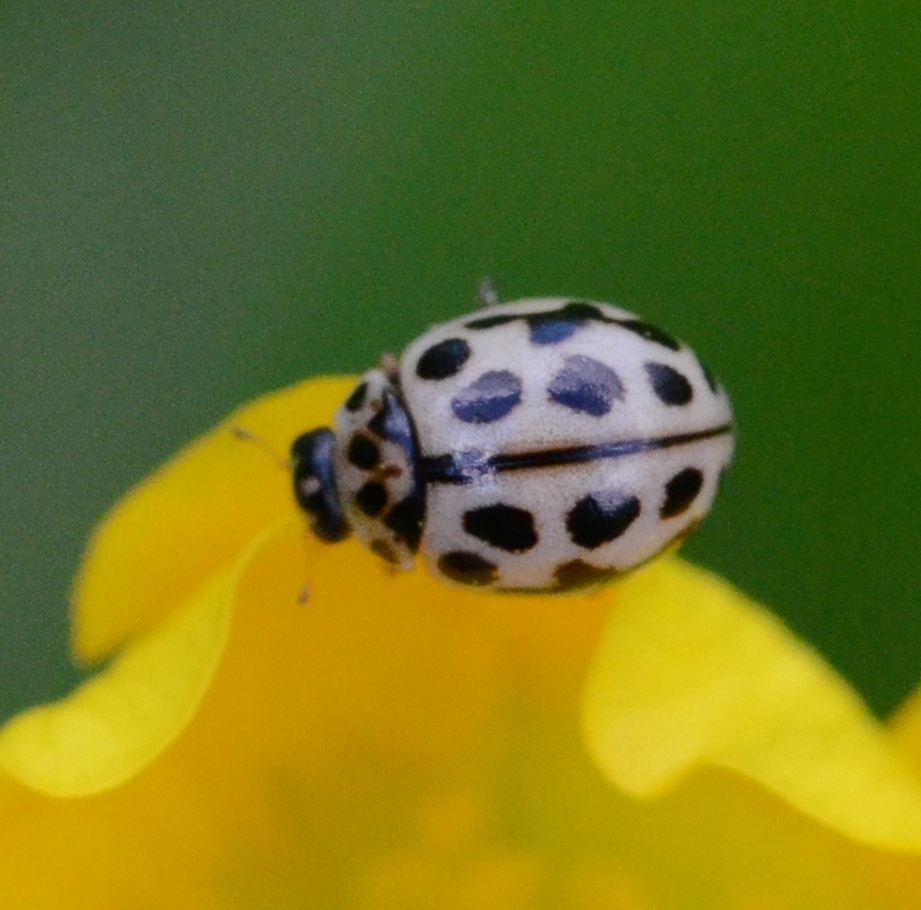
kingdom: Animalia
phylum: Arthropoda
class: Insecta
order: Coleoptera
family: Coccinellidae
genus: Tytthaspis
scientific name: Tytthaspis sedecimpunctata
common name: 16-spot ladybird
